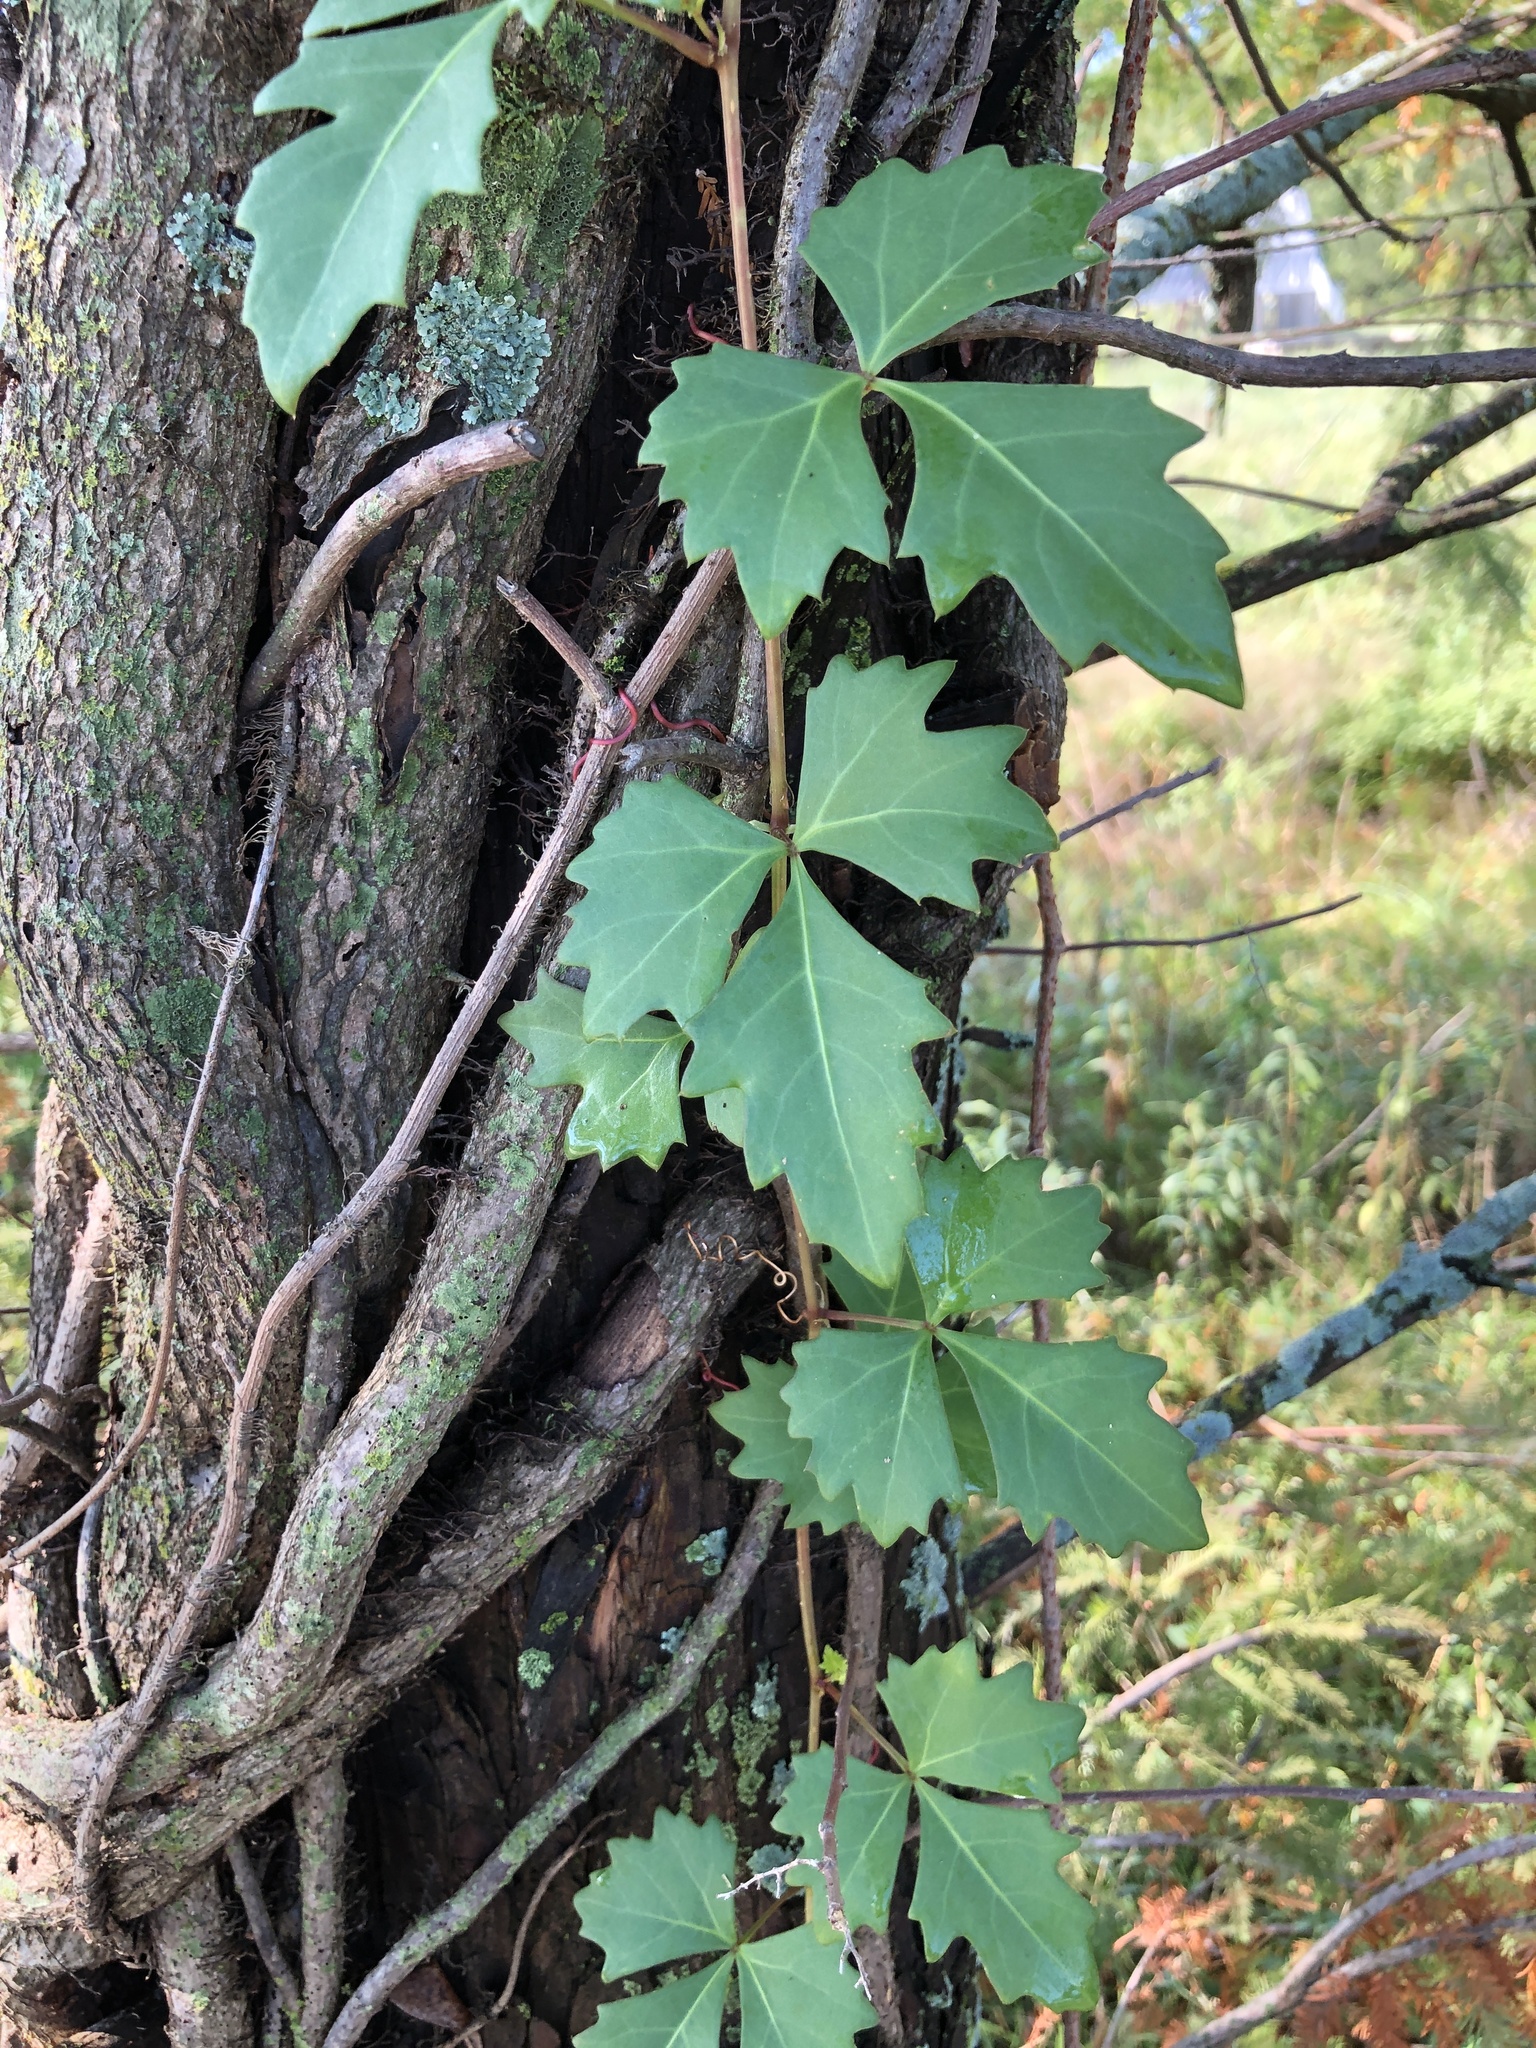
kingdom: Plantae
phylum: Tracheophyta
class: Magnoliopsida
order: Vitales
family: Vitaceae
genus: Cissus
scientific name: Cissus trifoliata
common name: Vine-sorrel
